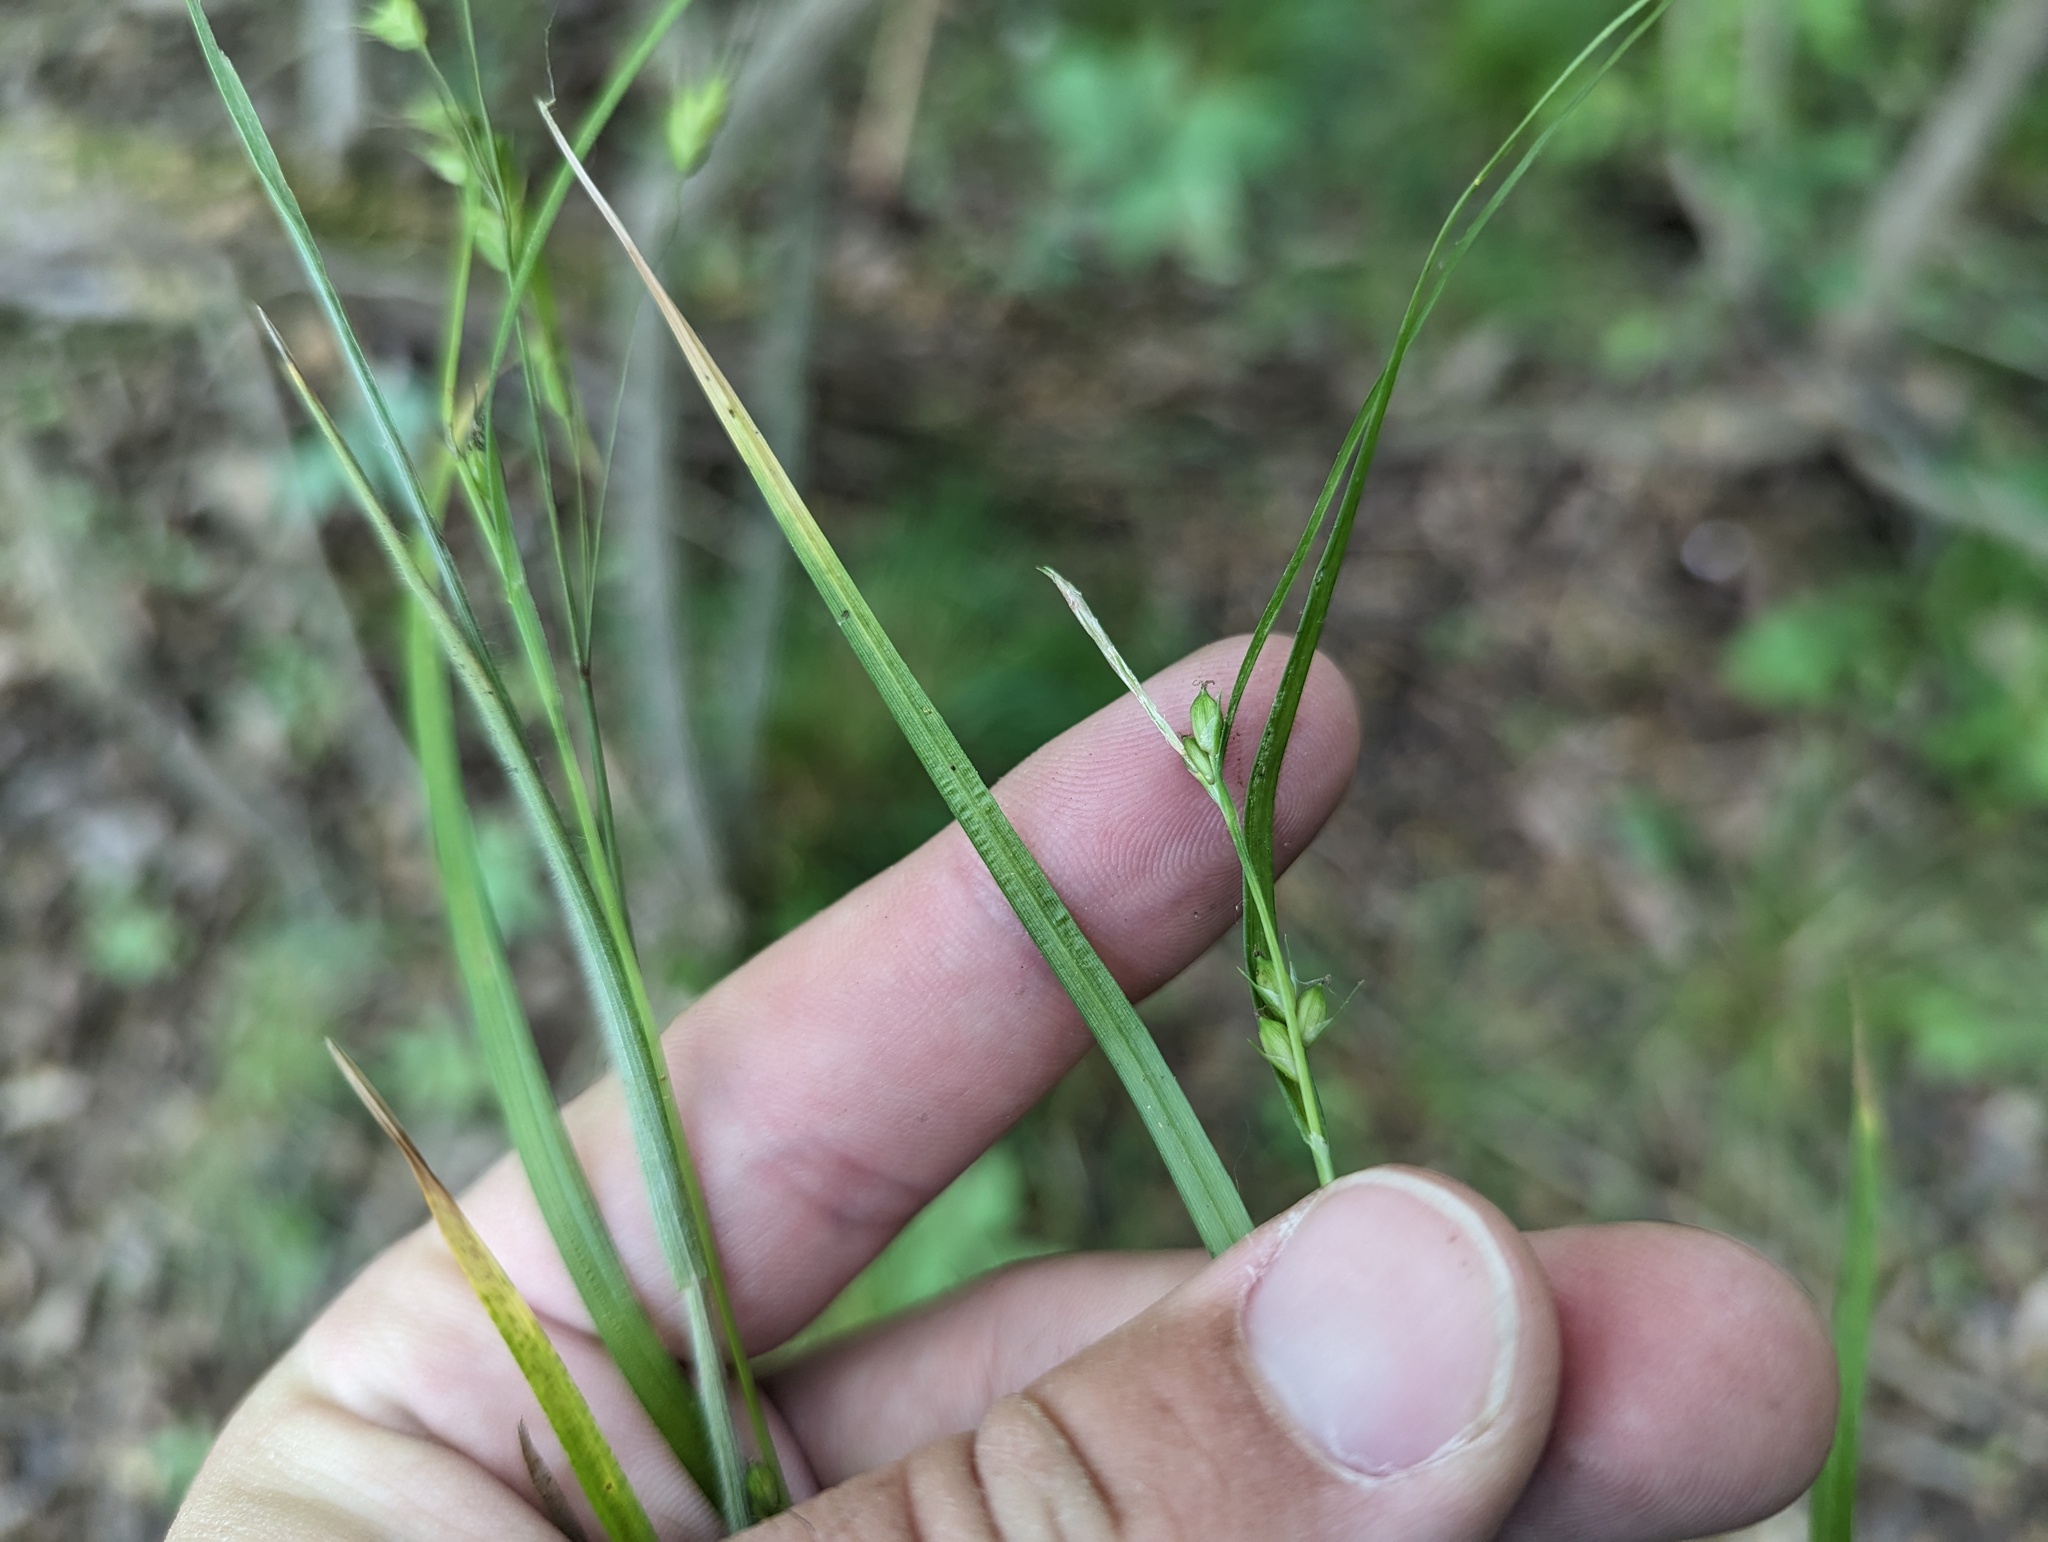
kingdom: Plantae
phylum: Tracheophyta
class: Liliopsida
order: Poales
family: Cyperaceae
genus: Carex
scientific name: Carex oligocarpa
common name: Eastern few-fruited sedge
